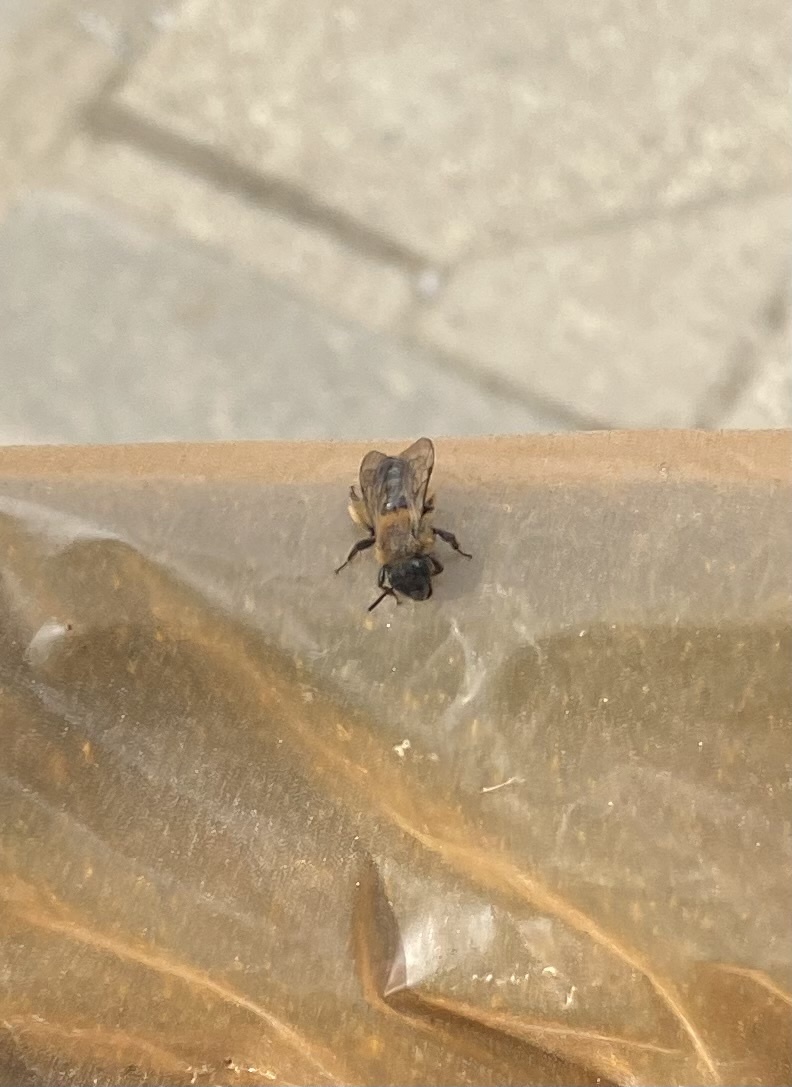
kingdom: Animalia
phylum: Arthropoda
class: Insecta
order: Hymenoptera
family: Andrenidae
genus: Andrena
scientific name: Andrena
